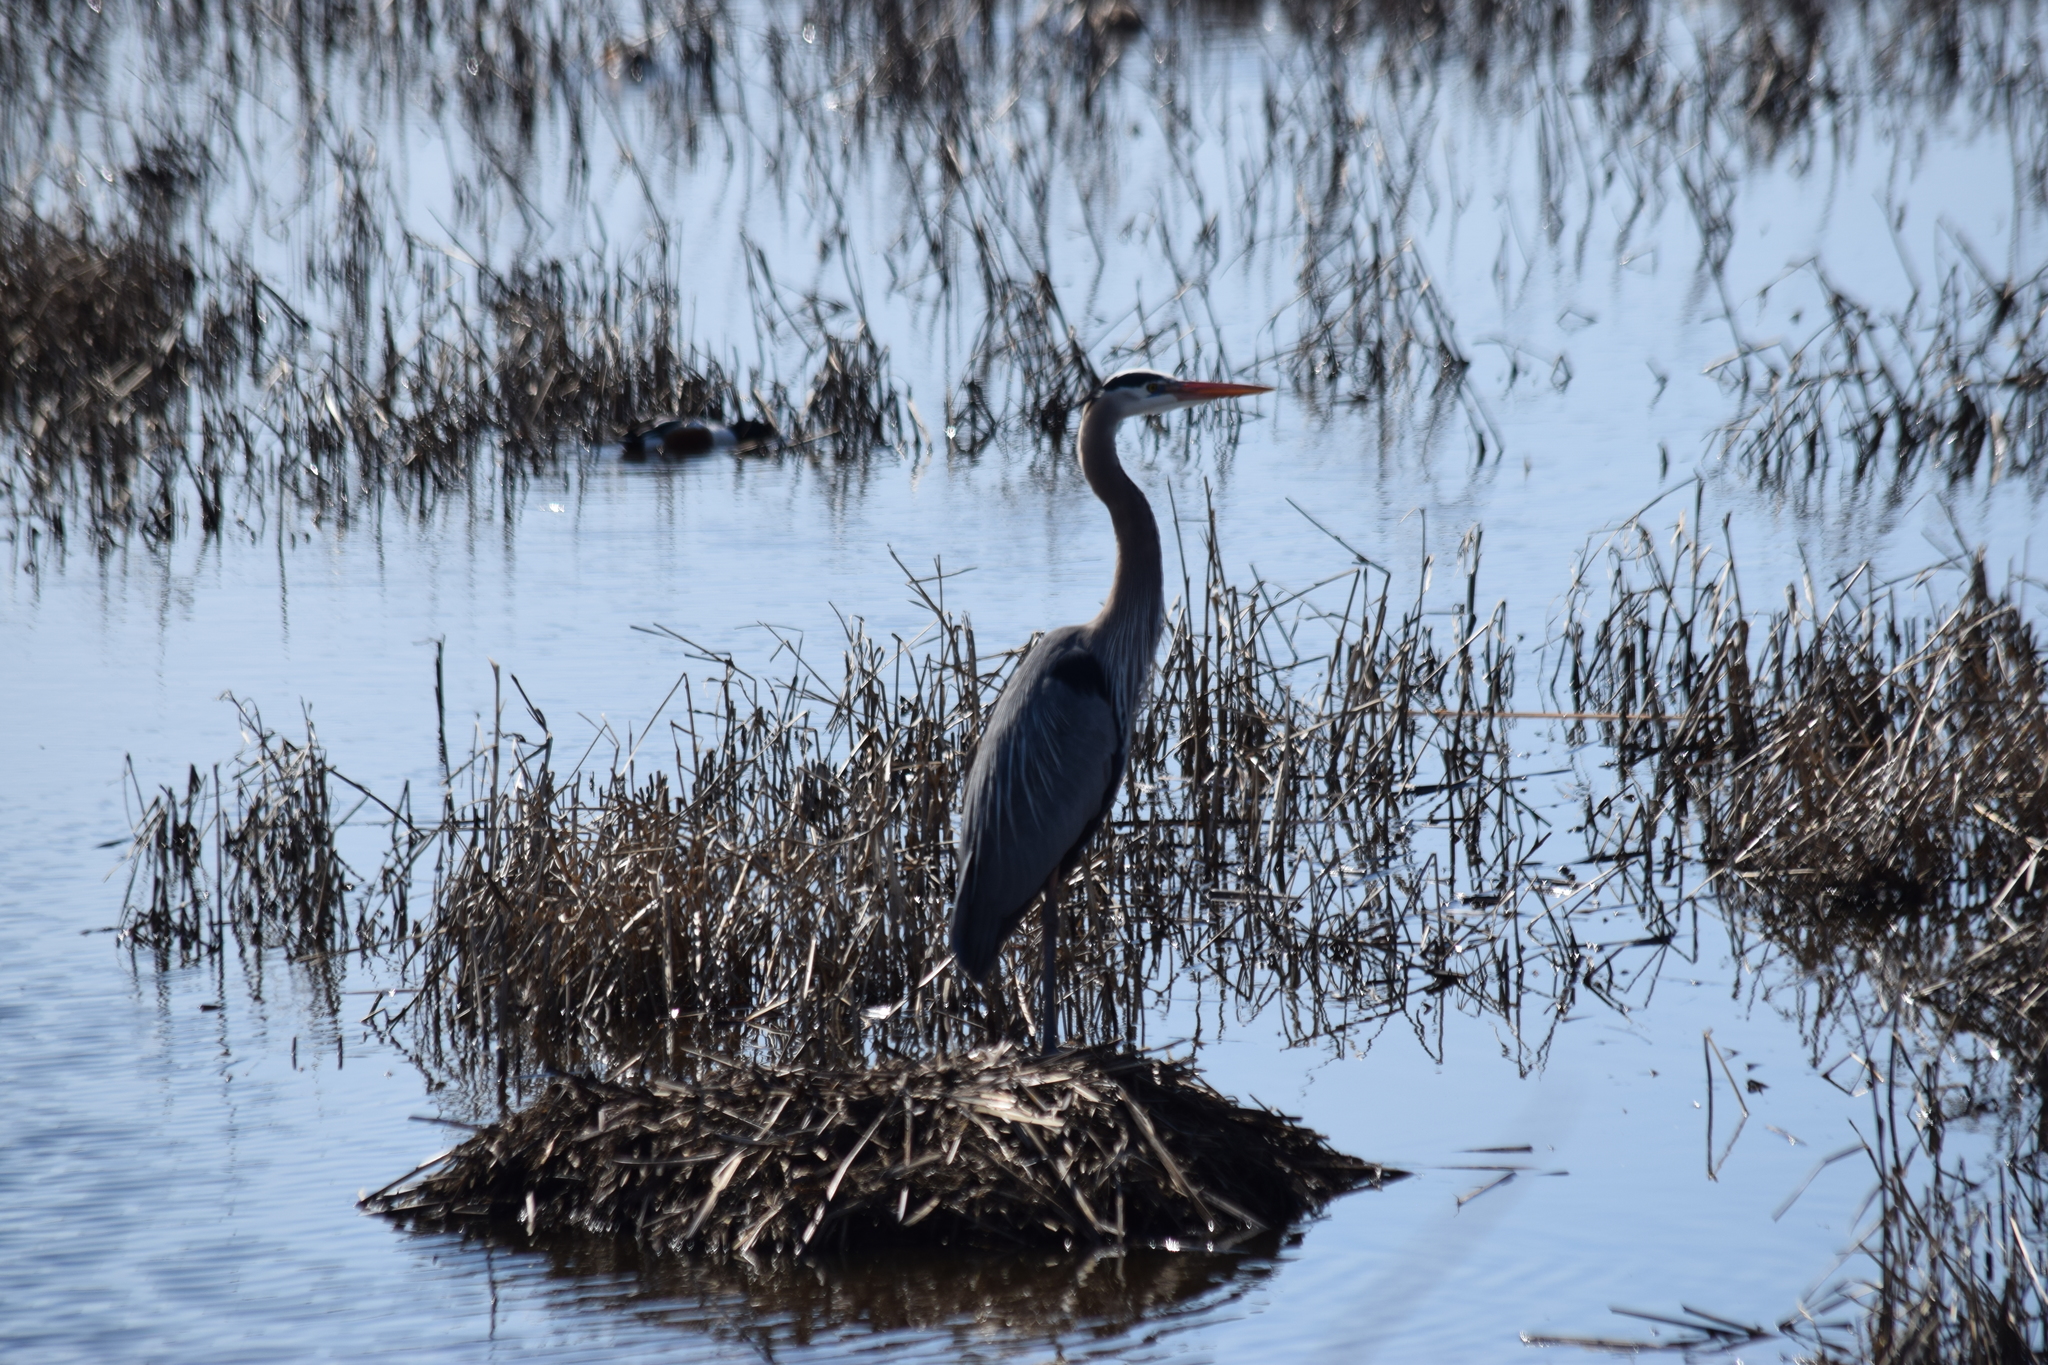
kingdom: Animalia
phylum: Chordata
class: Aves
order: Pelecaniformes
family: Ardeidae
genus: Ardea
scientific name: Ardea herodias
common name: Great blue heron
